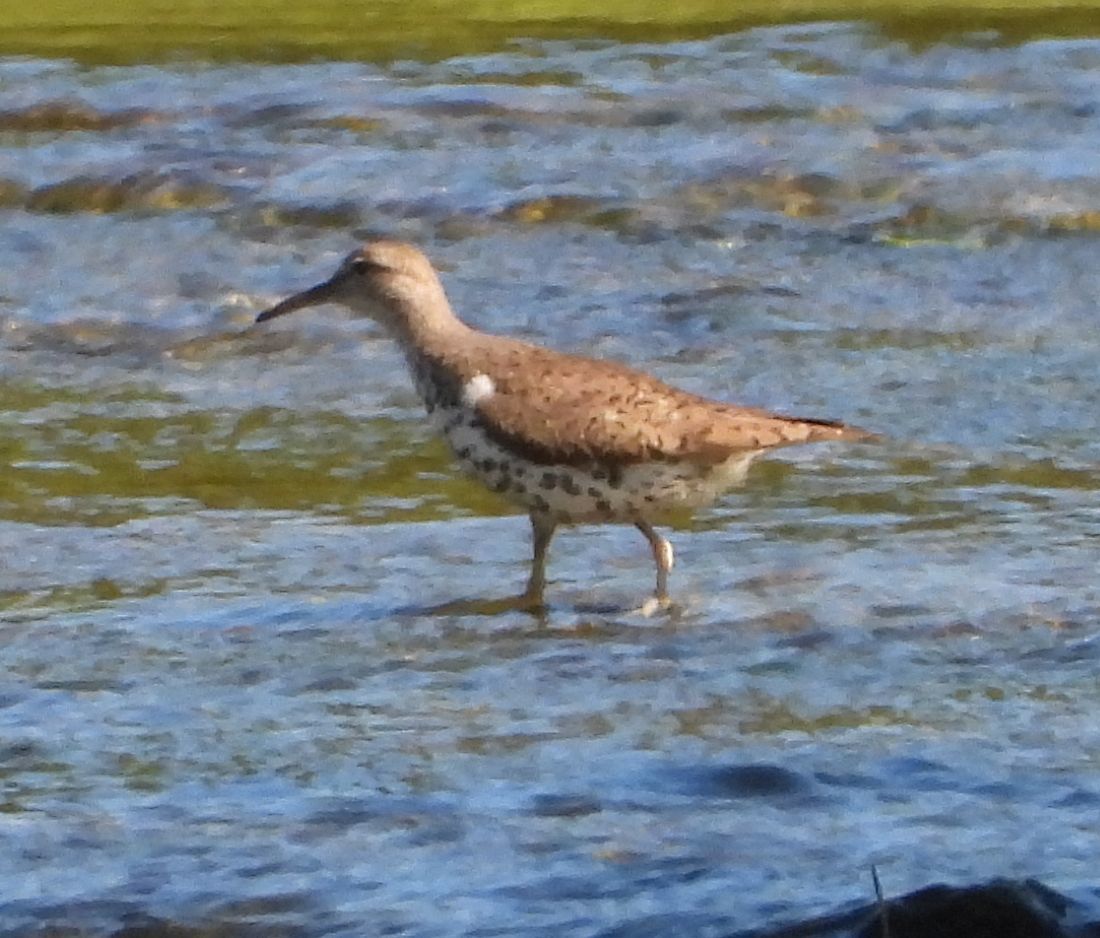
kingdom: Animalia
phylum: Chordata
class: Aves
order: Charadriiformes
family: Scolopacidae
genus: Actitis
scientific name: Actitis macularius
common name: Spotted sandpiper
